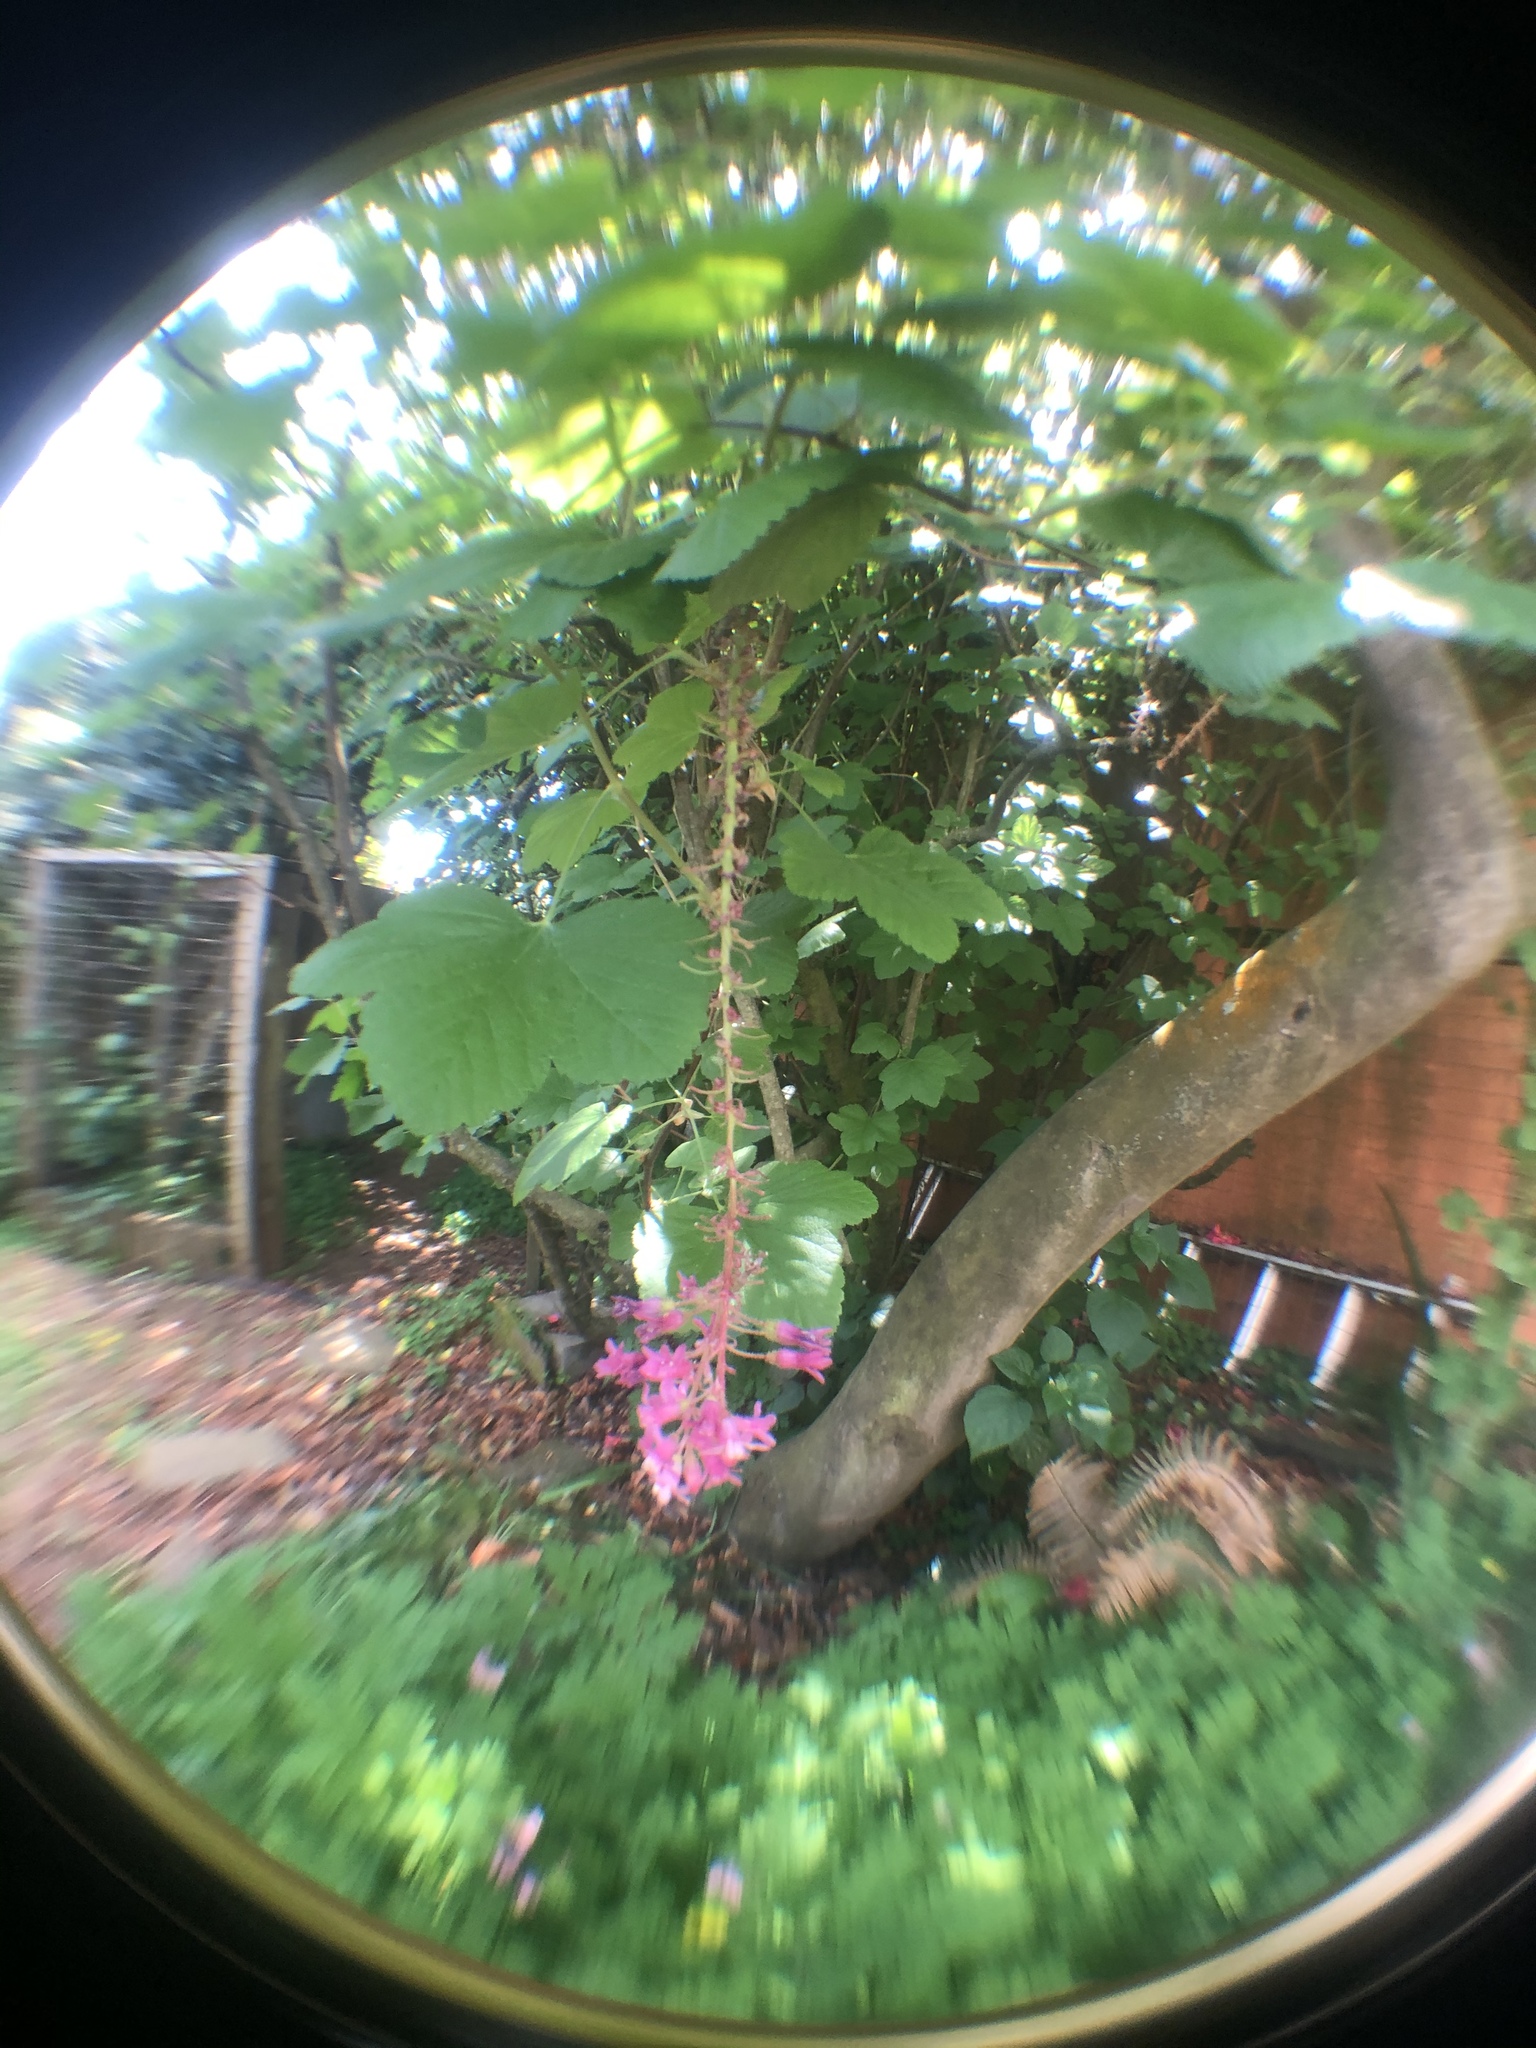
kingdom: Plantae
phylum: Tracheophyta
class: Magnoliopsida
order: Saxifragales
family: Grossulariaceae
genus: Ribes
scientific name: Ribes sanguineum
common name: Flowering currant
